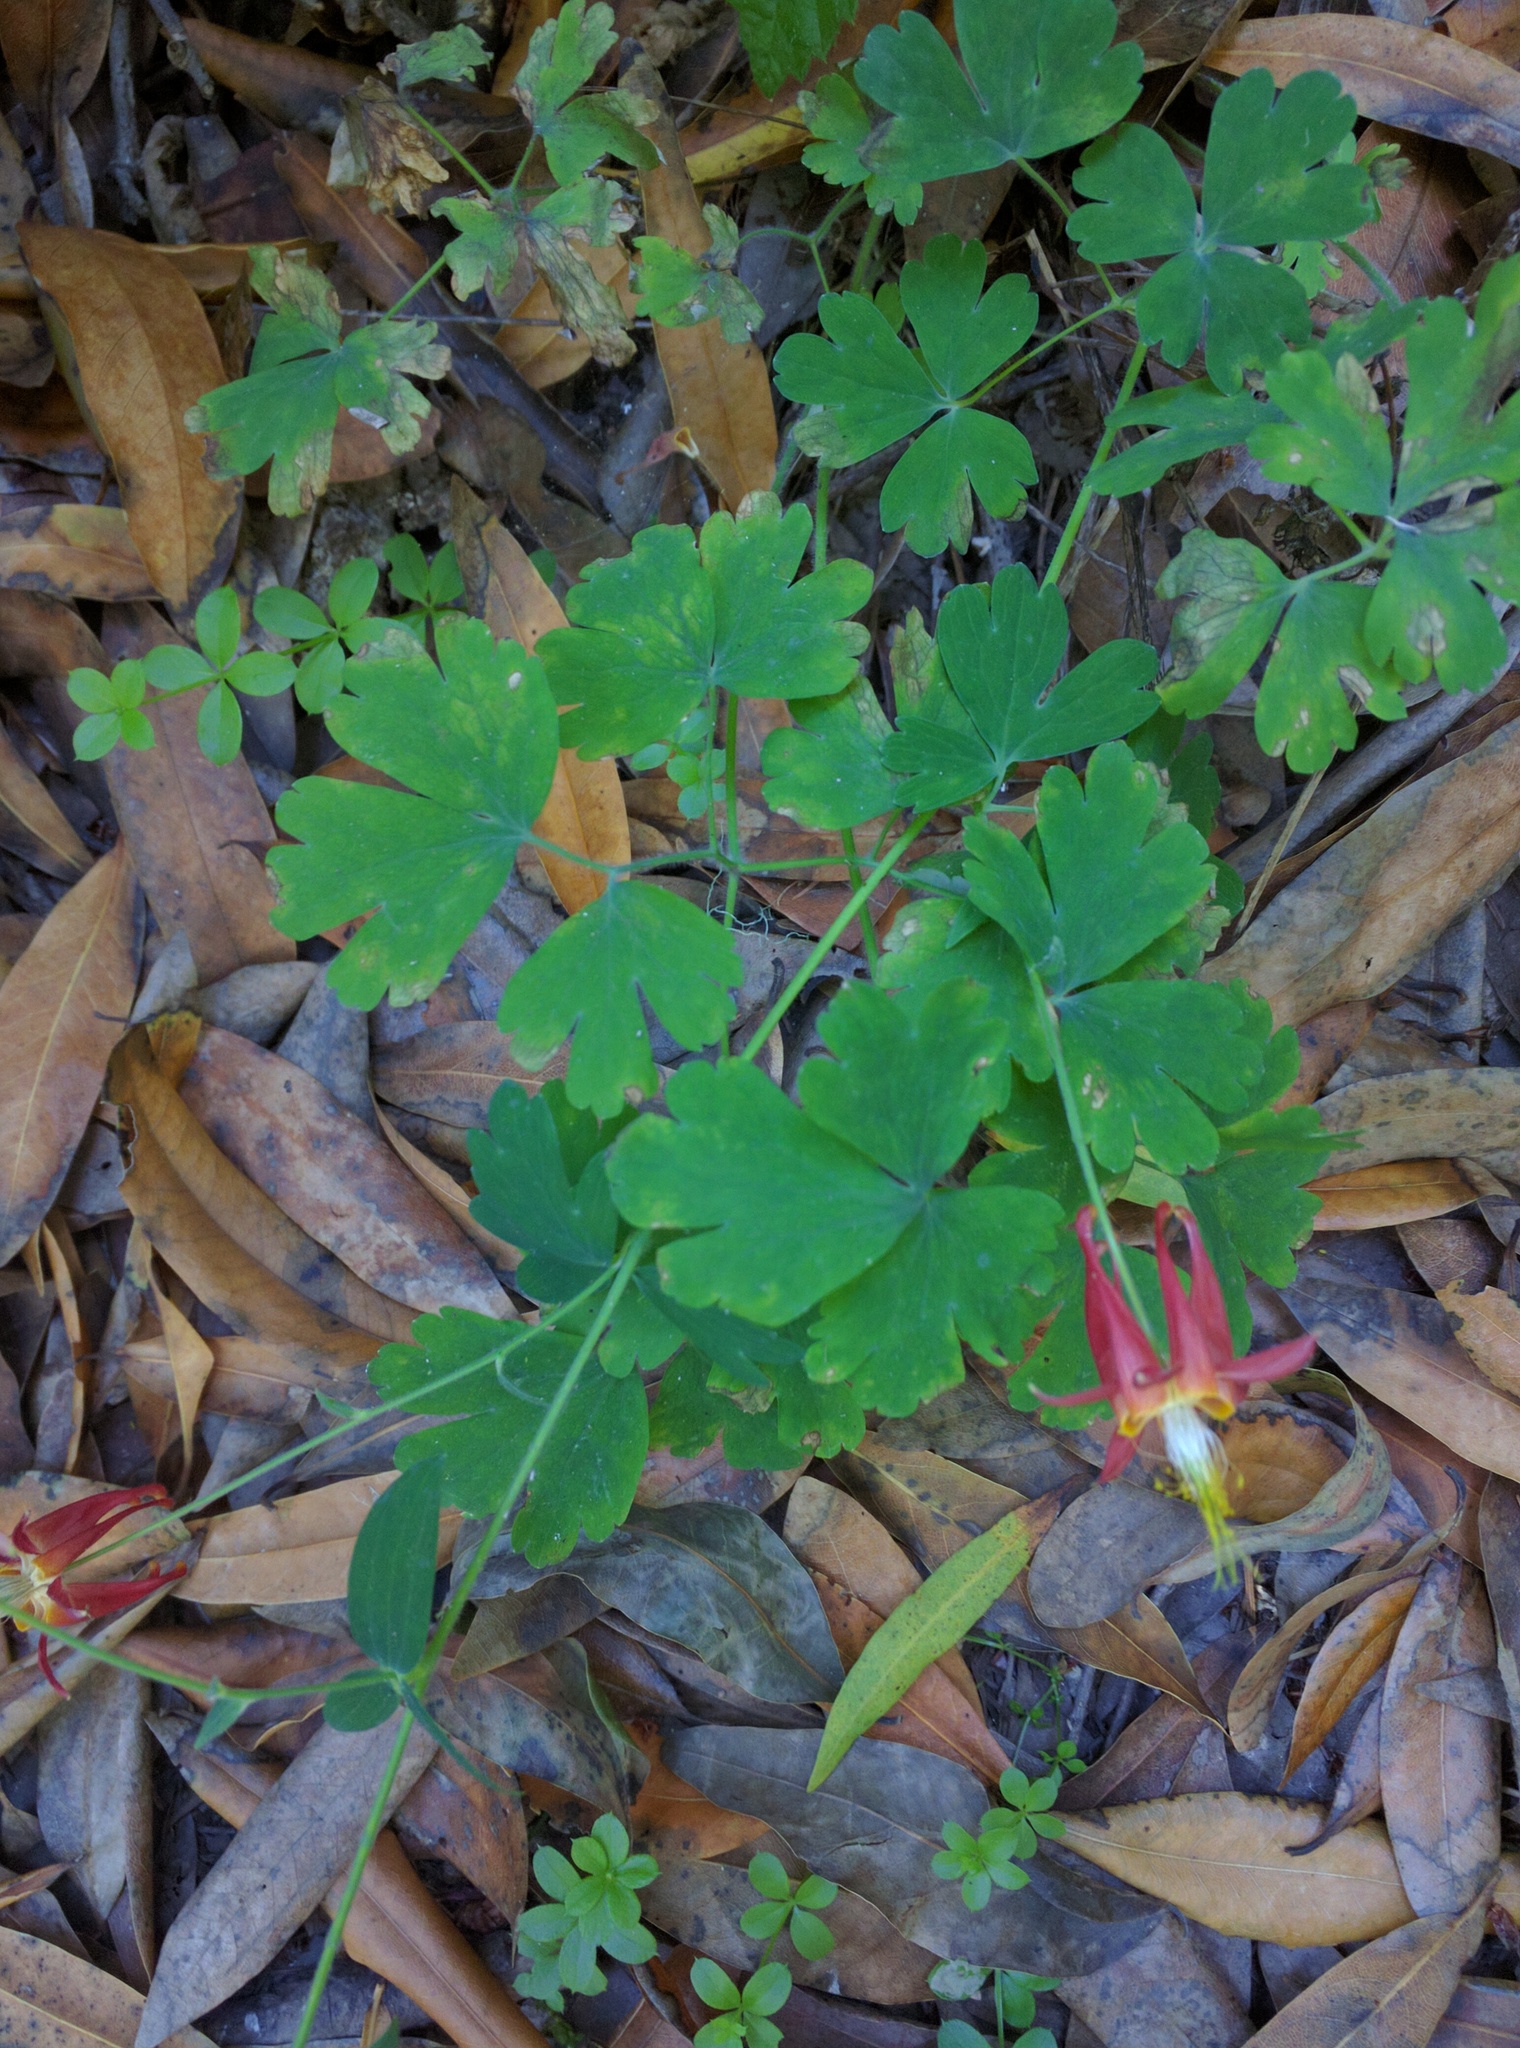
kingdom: Plantae
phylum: Tracheophyta
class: Magnoliopsida
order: Ranunculales
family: Ranunculaceae
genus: Aquilegia
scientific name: Aquilegia formosa
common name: Sitka columbine
